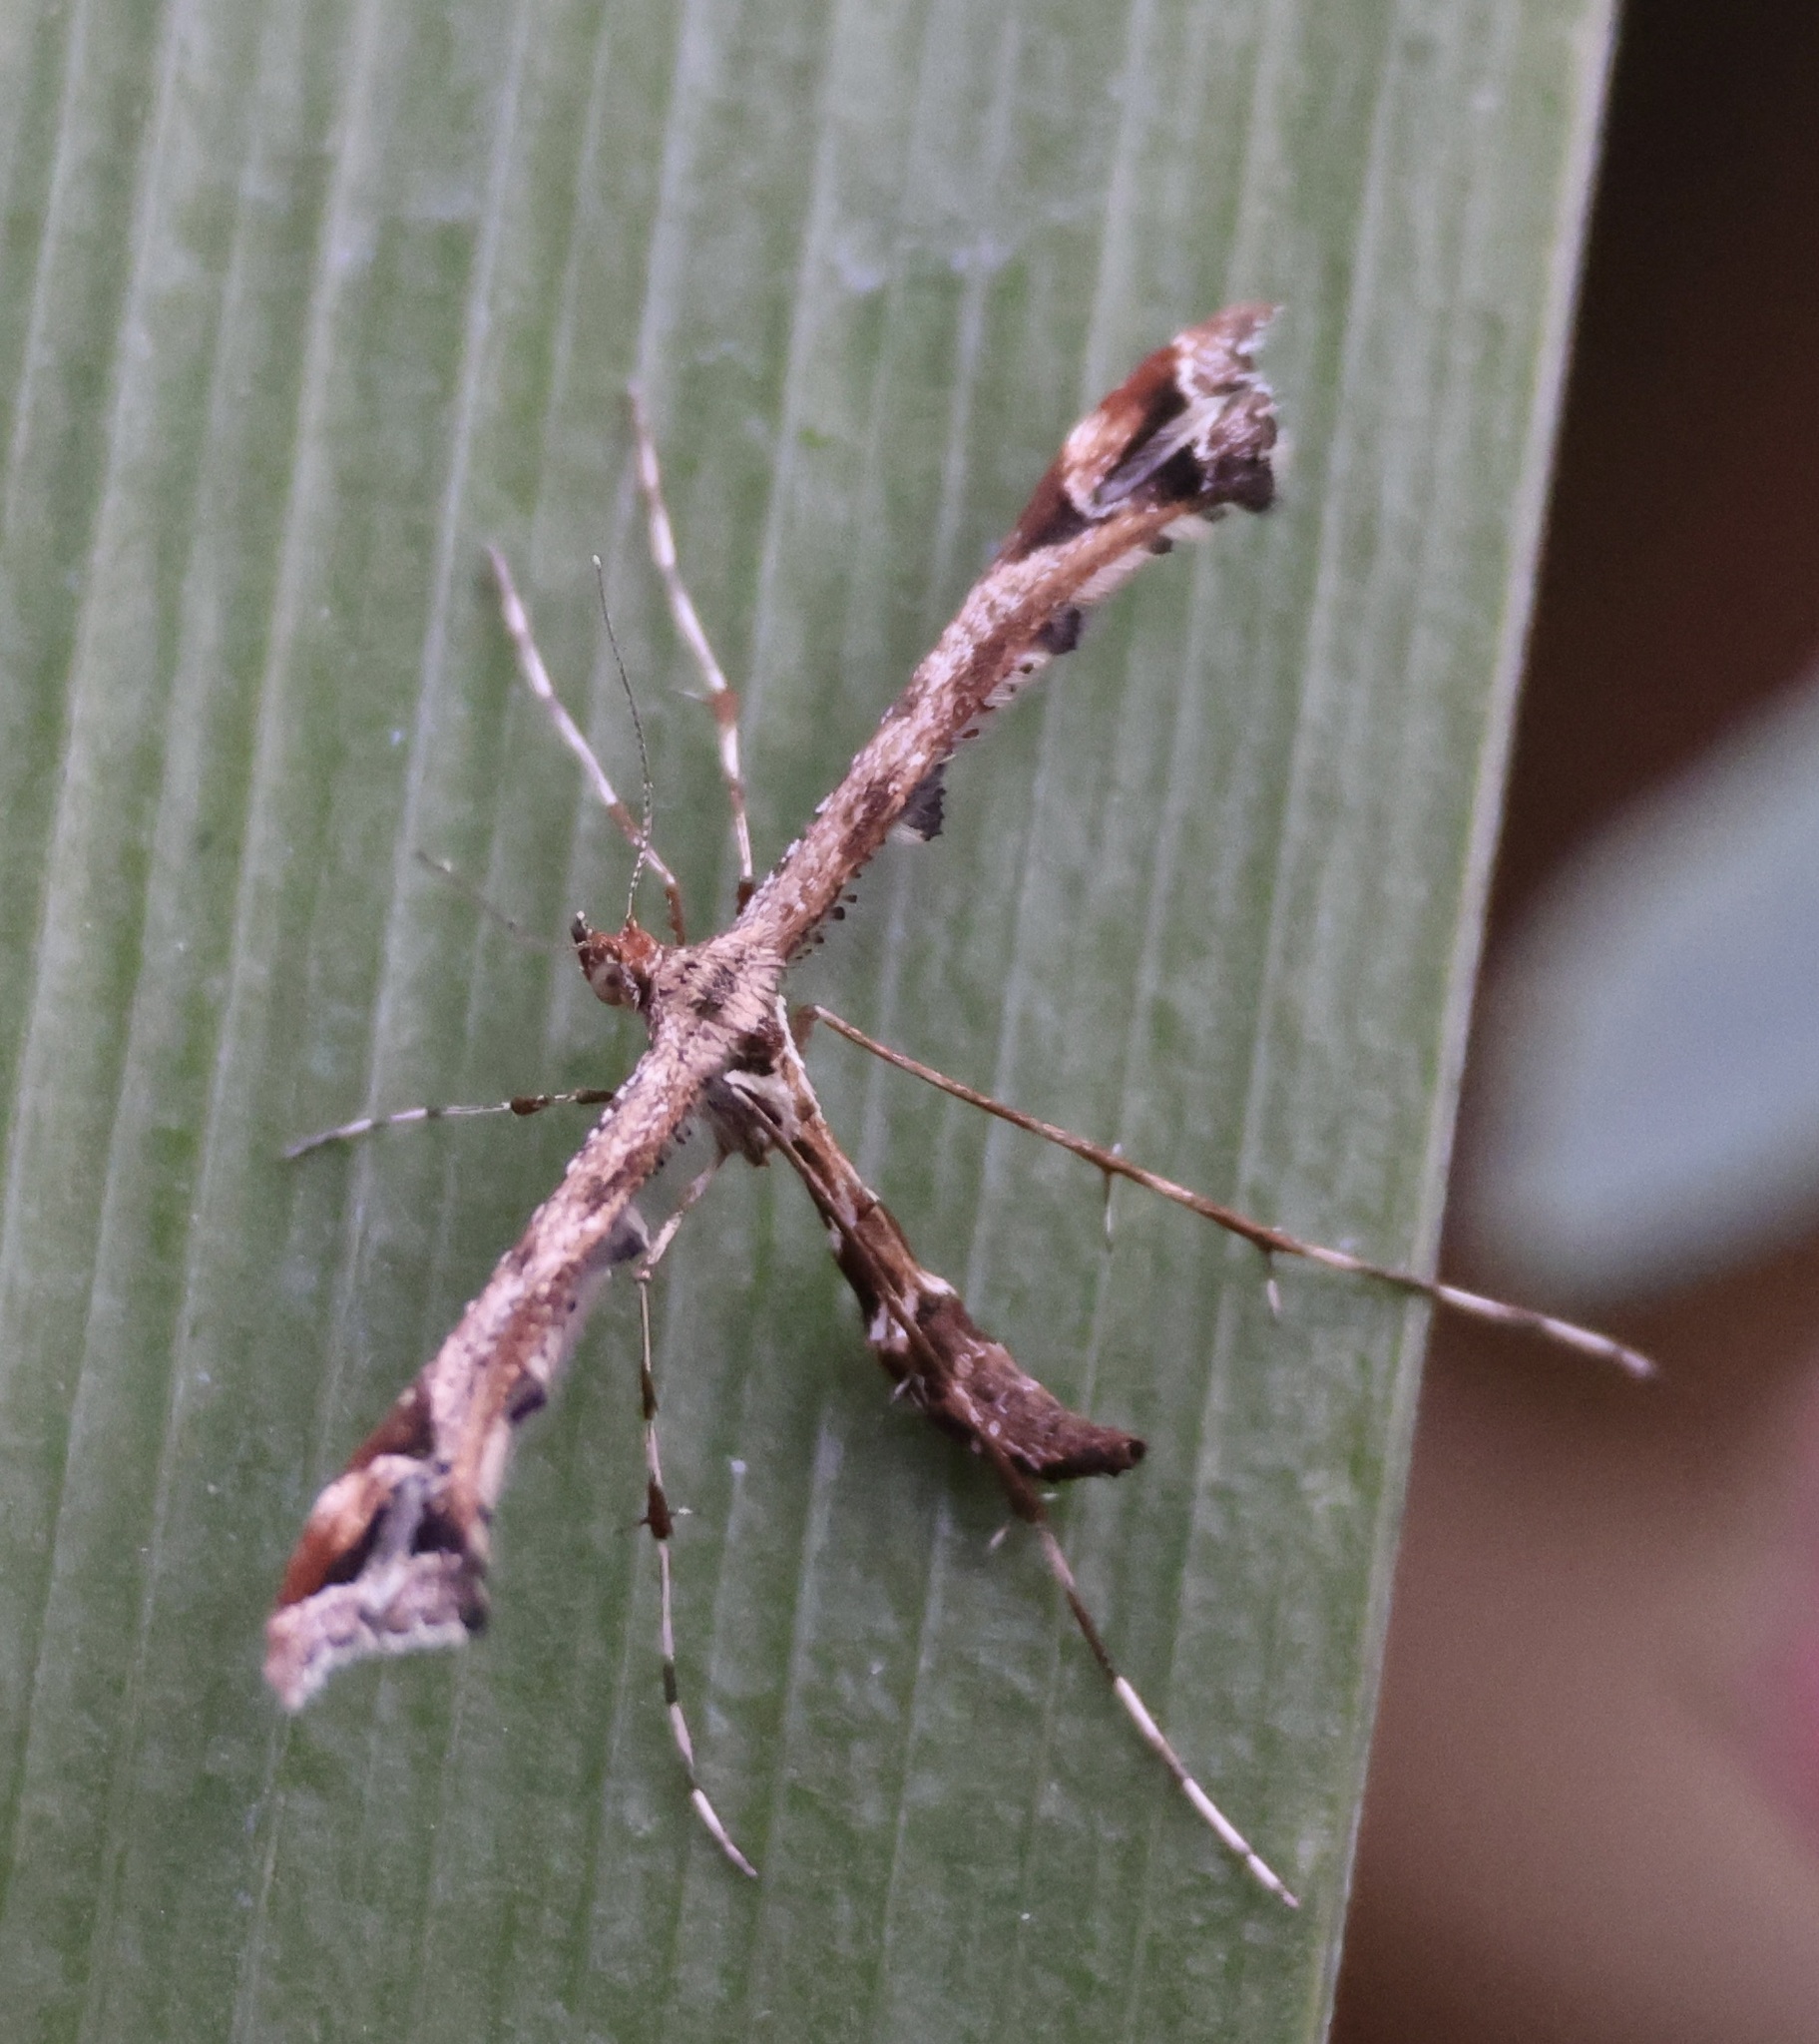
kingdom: Animalia
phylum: Arthropoda
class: Insecta
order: Lepidoptera
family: Pterophoridae
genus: Amblyptilia
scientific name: Amblyptilia acanthadactyla
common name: Beautiful plume
